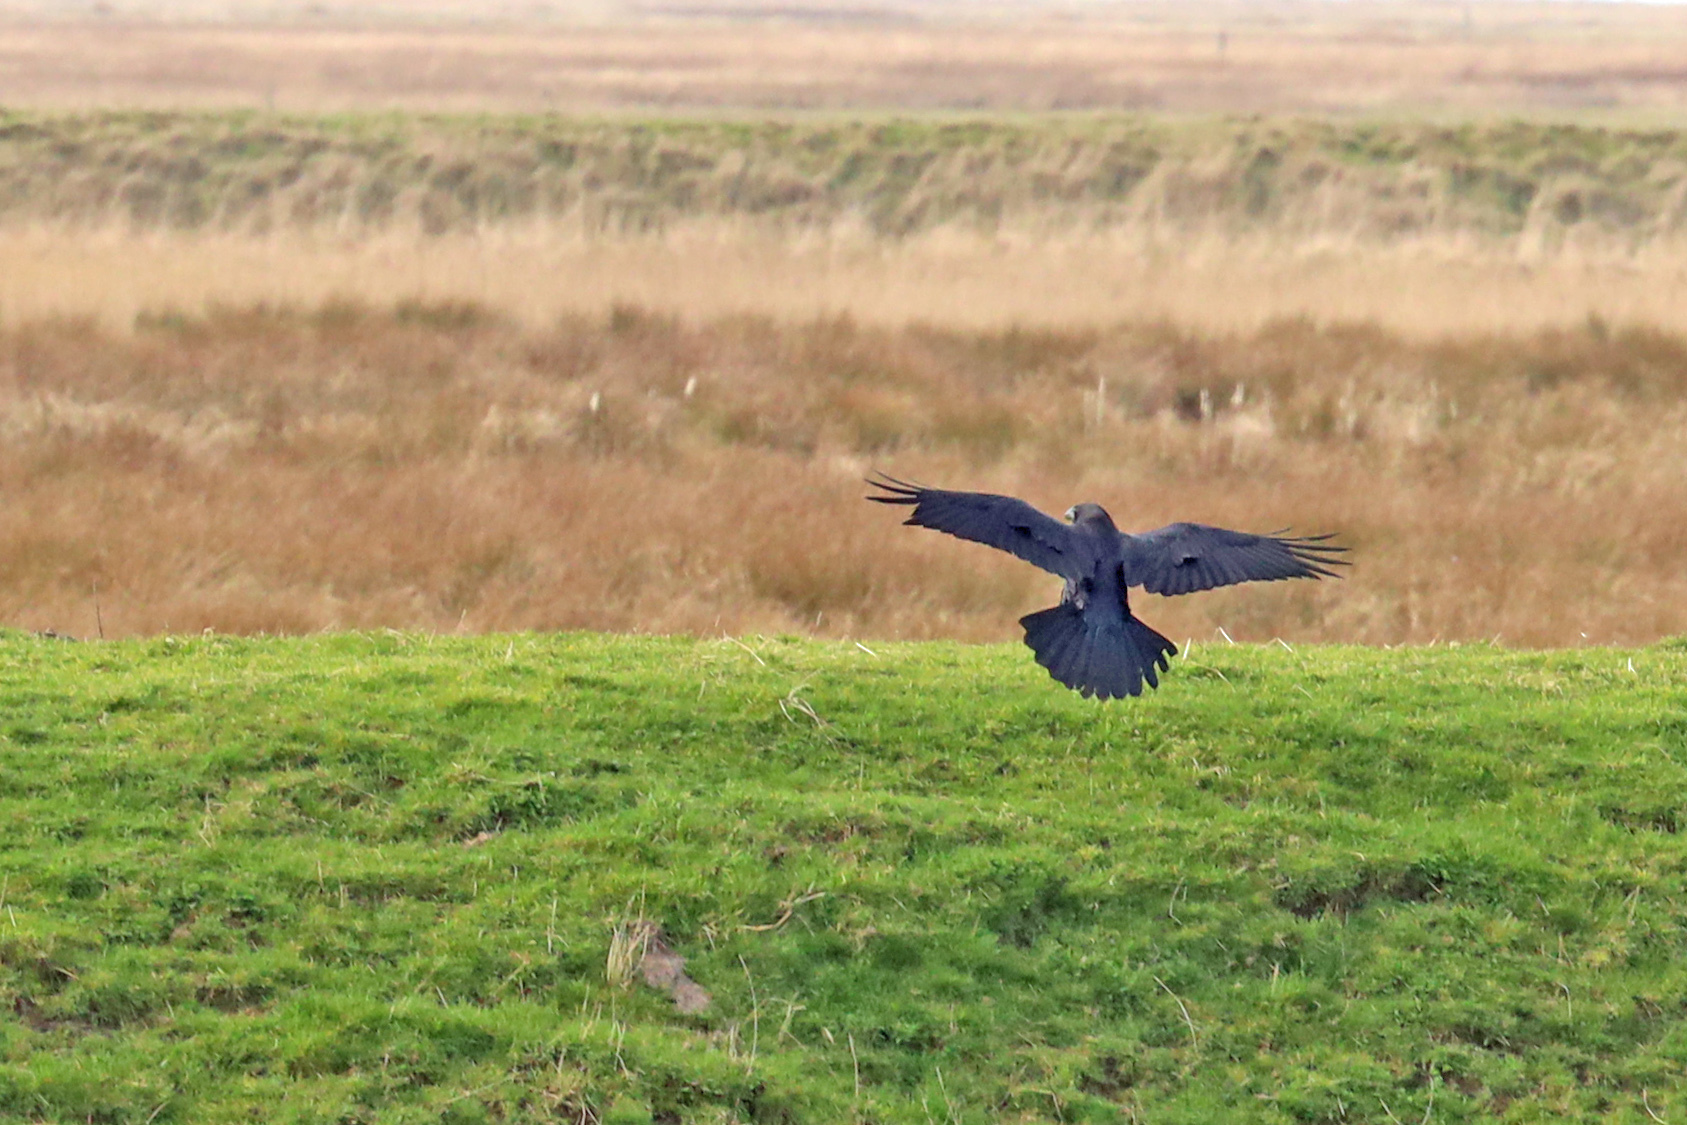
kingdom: Animalia
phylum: Chordata
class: Aves
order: Passeriformes
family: Corvidae
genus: Corvus
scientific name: Corvus corax
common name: Common raven
